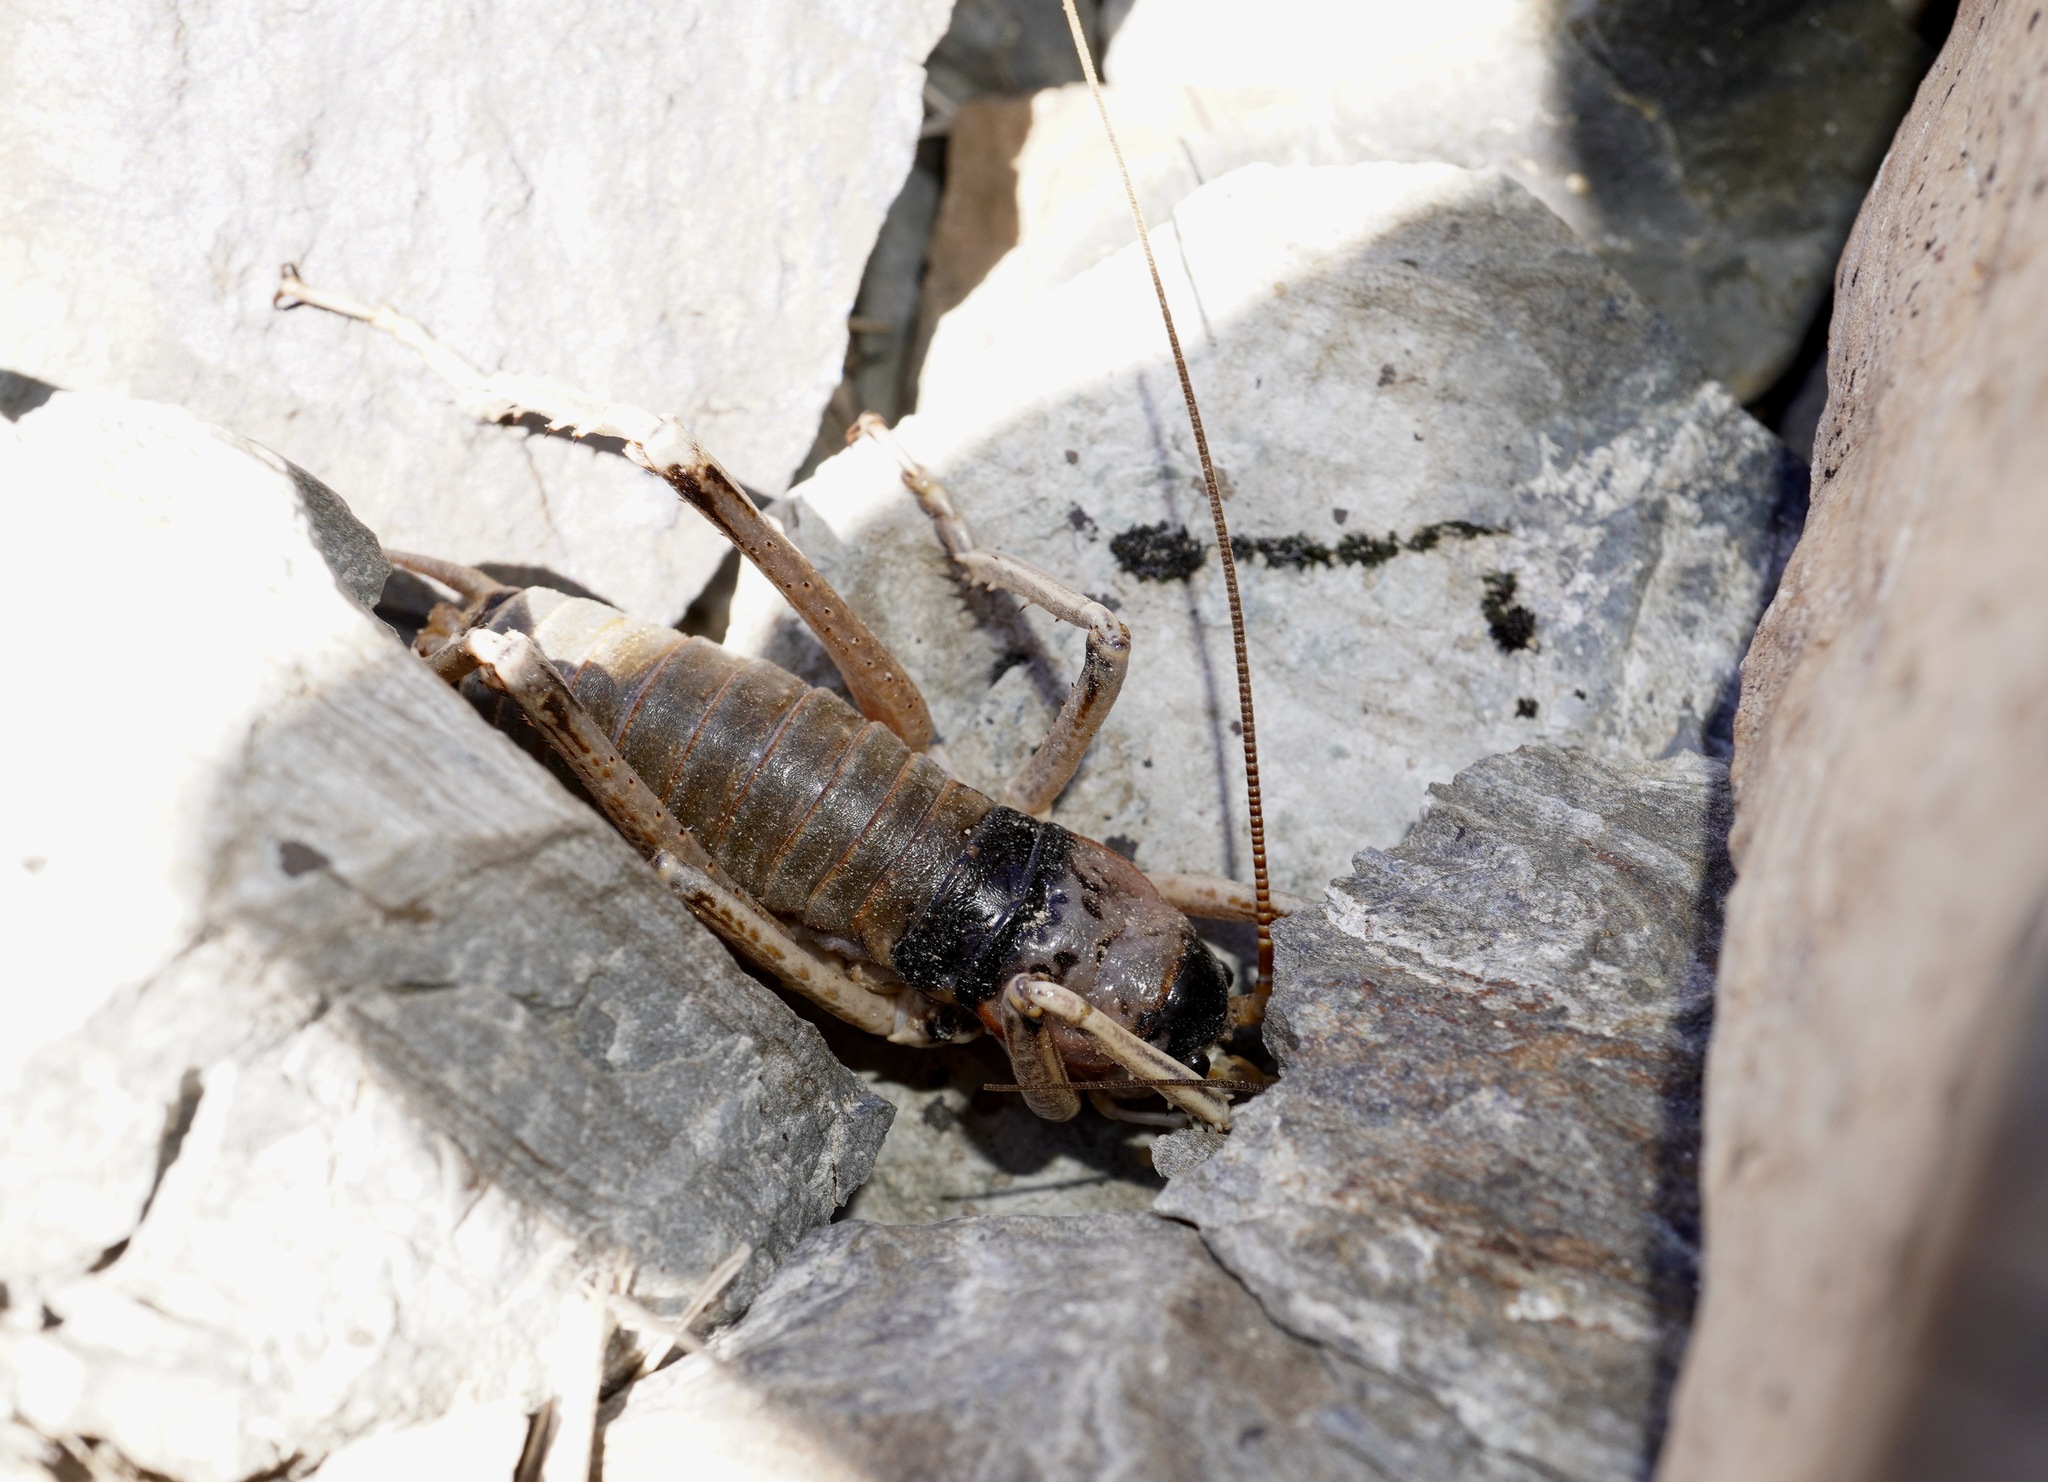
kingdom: Animalia
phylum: Arthropoda
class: Insecta
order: Orthoptera
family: Anostostomatidae
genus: Deinacrida
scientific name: Deinacrida connectens
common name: Scree weta
